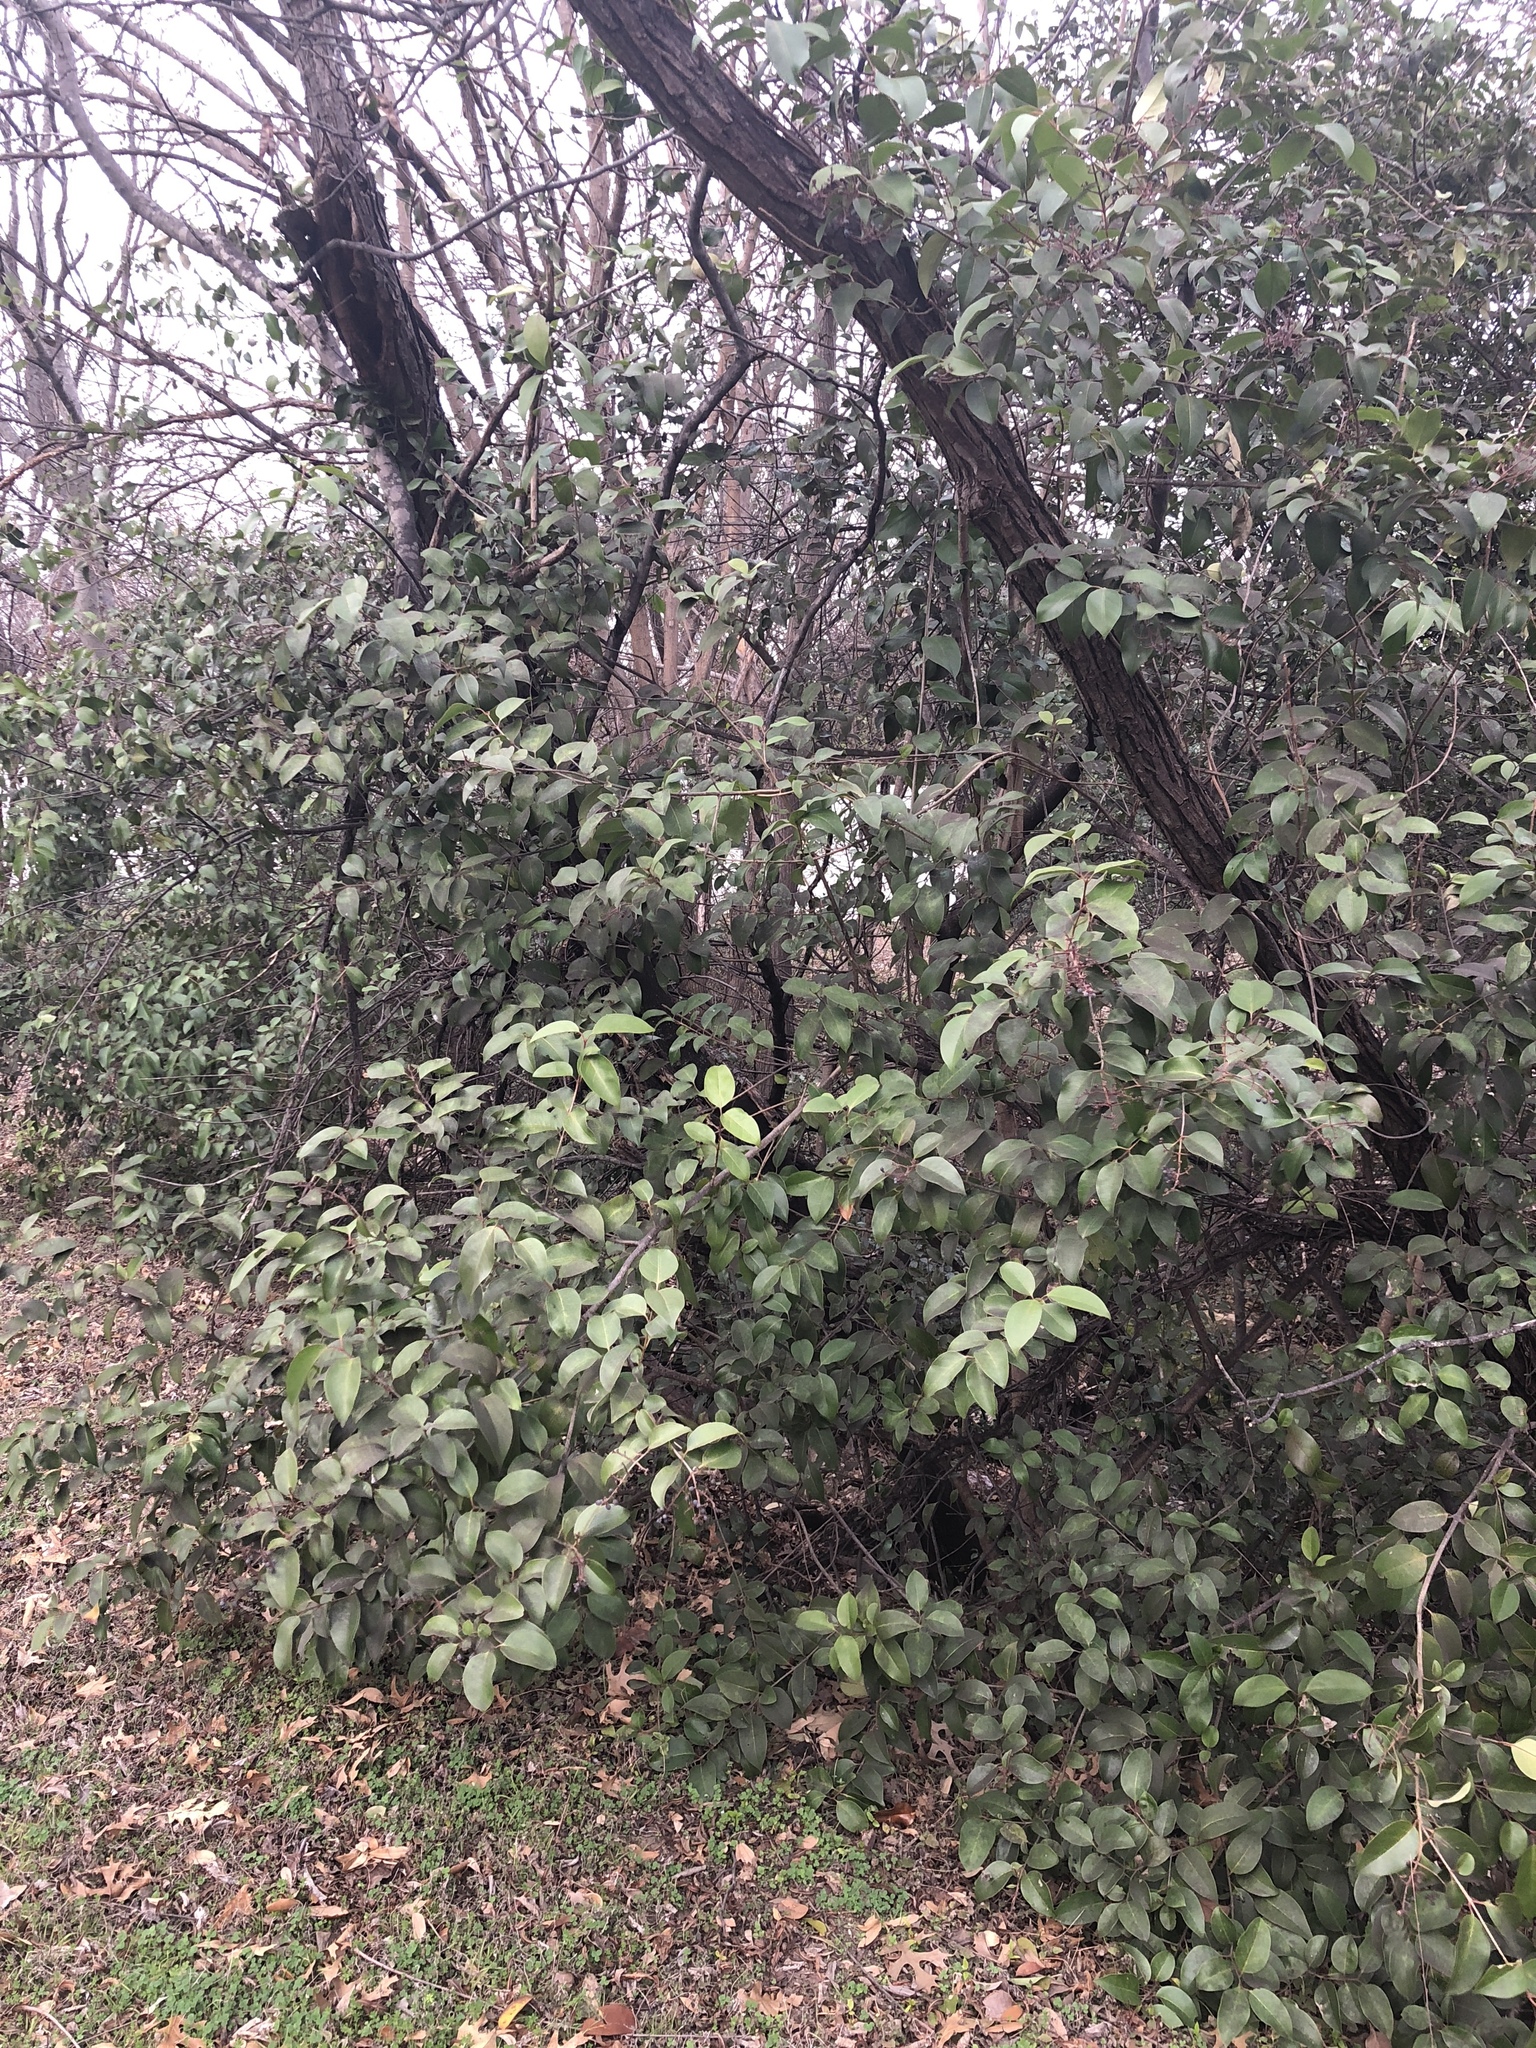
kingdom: Plantae
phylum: Tracheophyta
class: Magnoliopsida
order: Lamiales
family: Oleaceae
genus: Ligustrum
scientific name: Ligustrum lucidum
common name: Glossy privet
